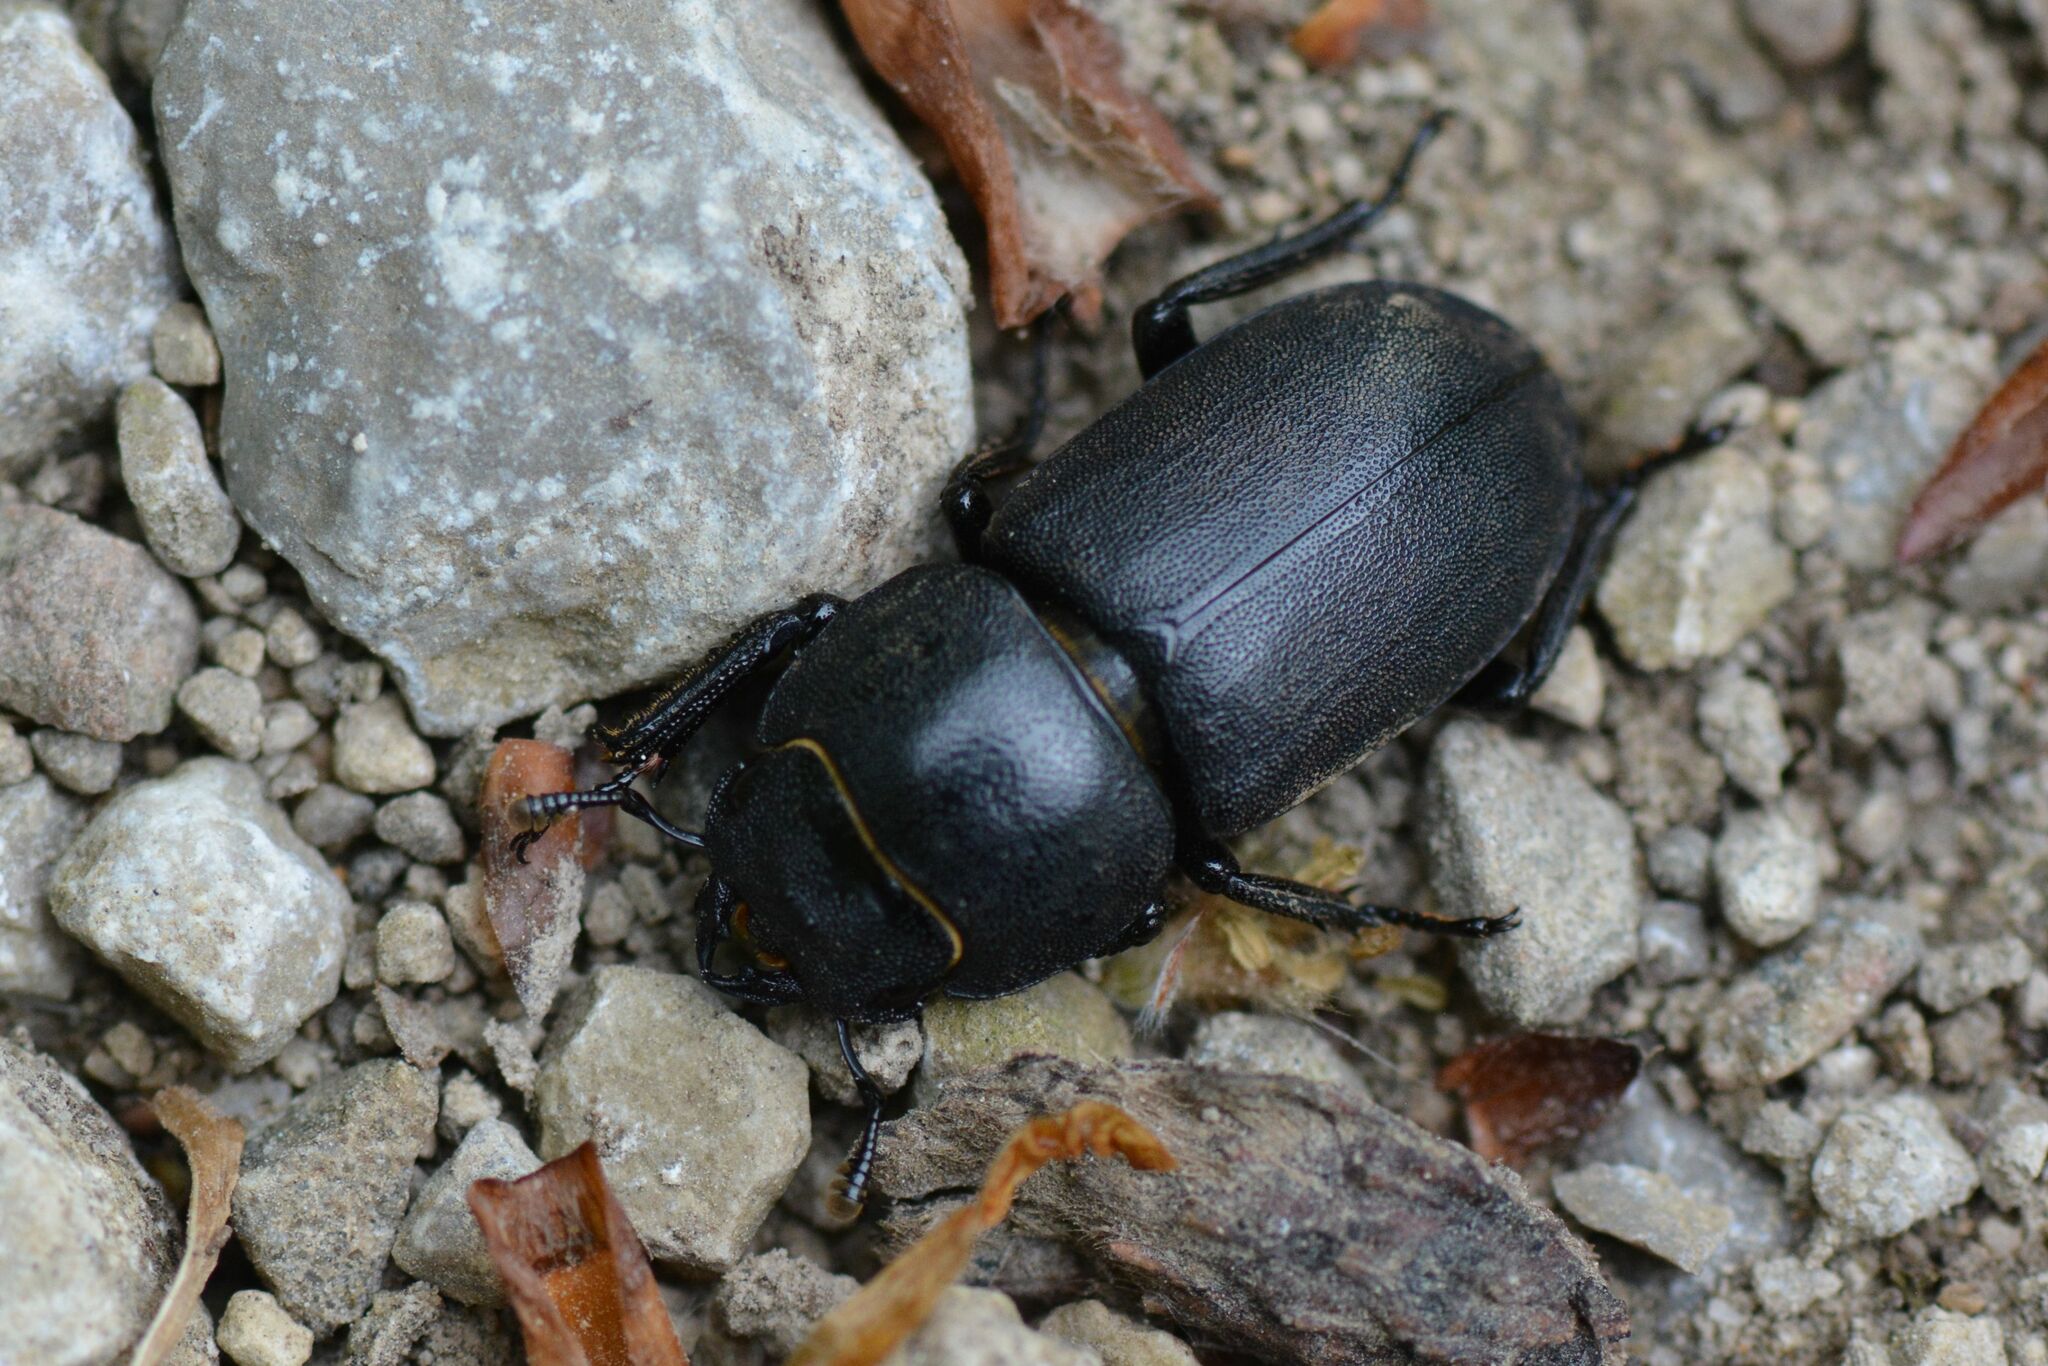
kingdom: Animalia
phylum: Arthropoda
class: Insecta
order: Coleoptera
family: Lucanidae
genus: Dorcus
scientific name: Dorcus parallelipipedus
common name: Lesser stag beetle
